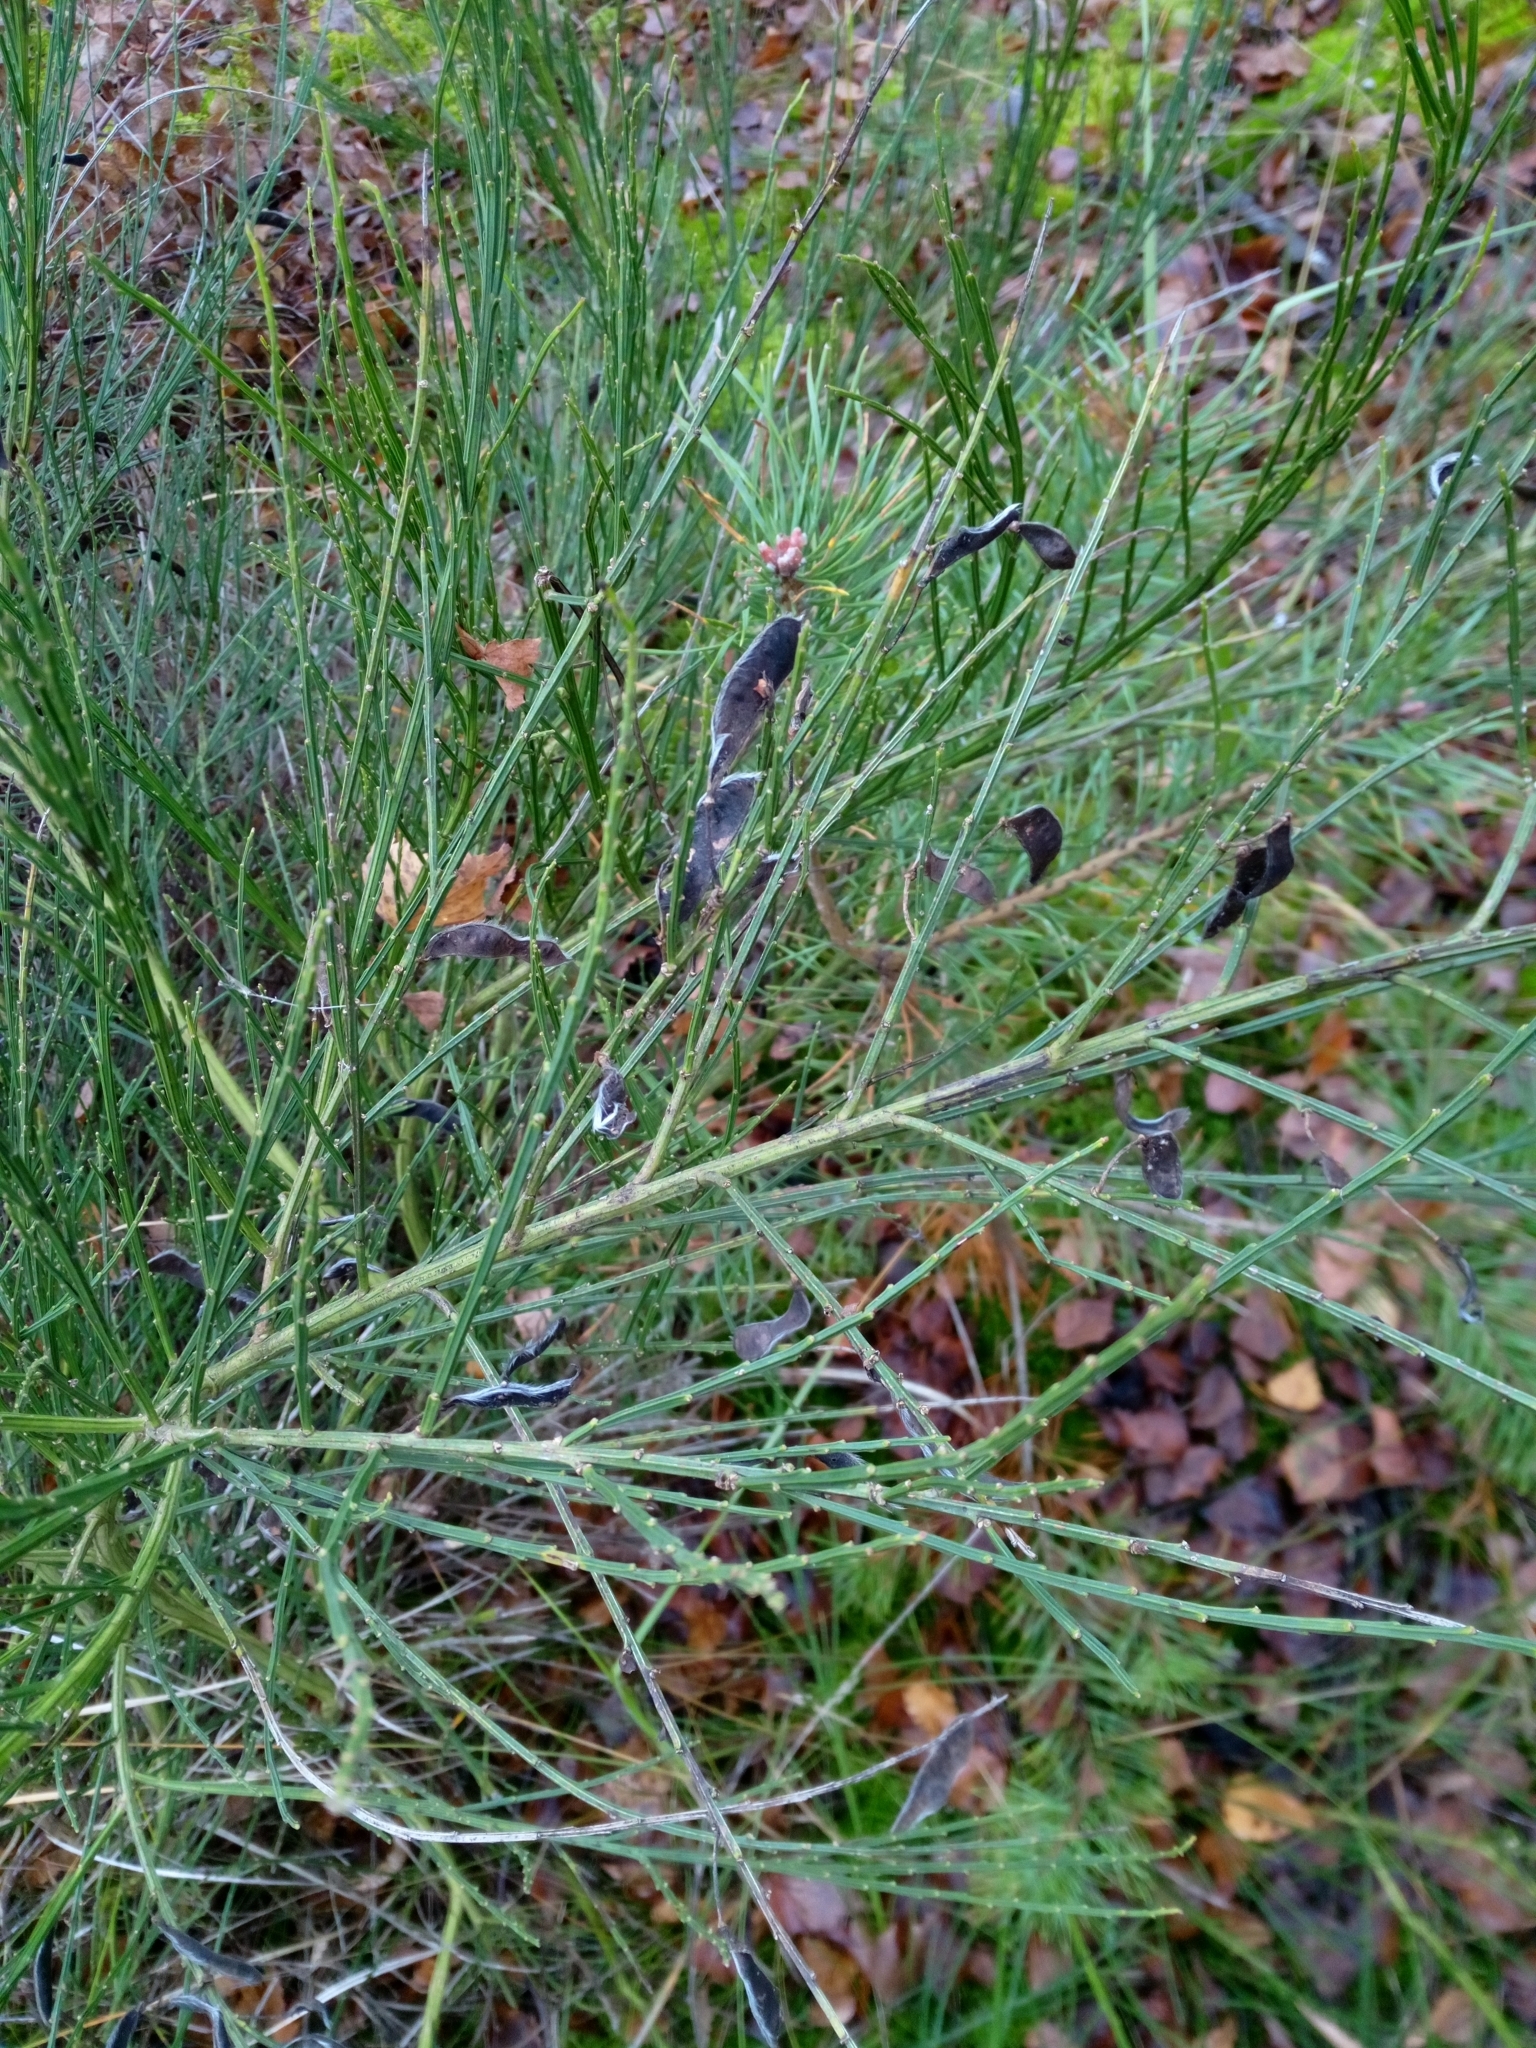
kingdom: Plantae
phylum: Tracheophyta
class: Magnoliopsida
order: Fabales
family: Fabaceae
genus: Cytisus
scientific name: Cytisus scoparius
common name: Scotch broom
